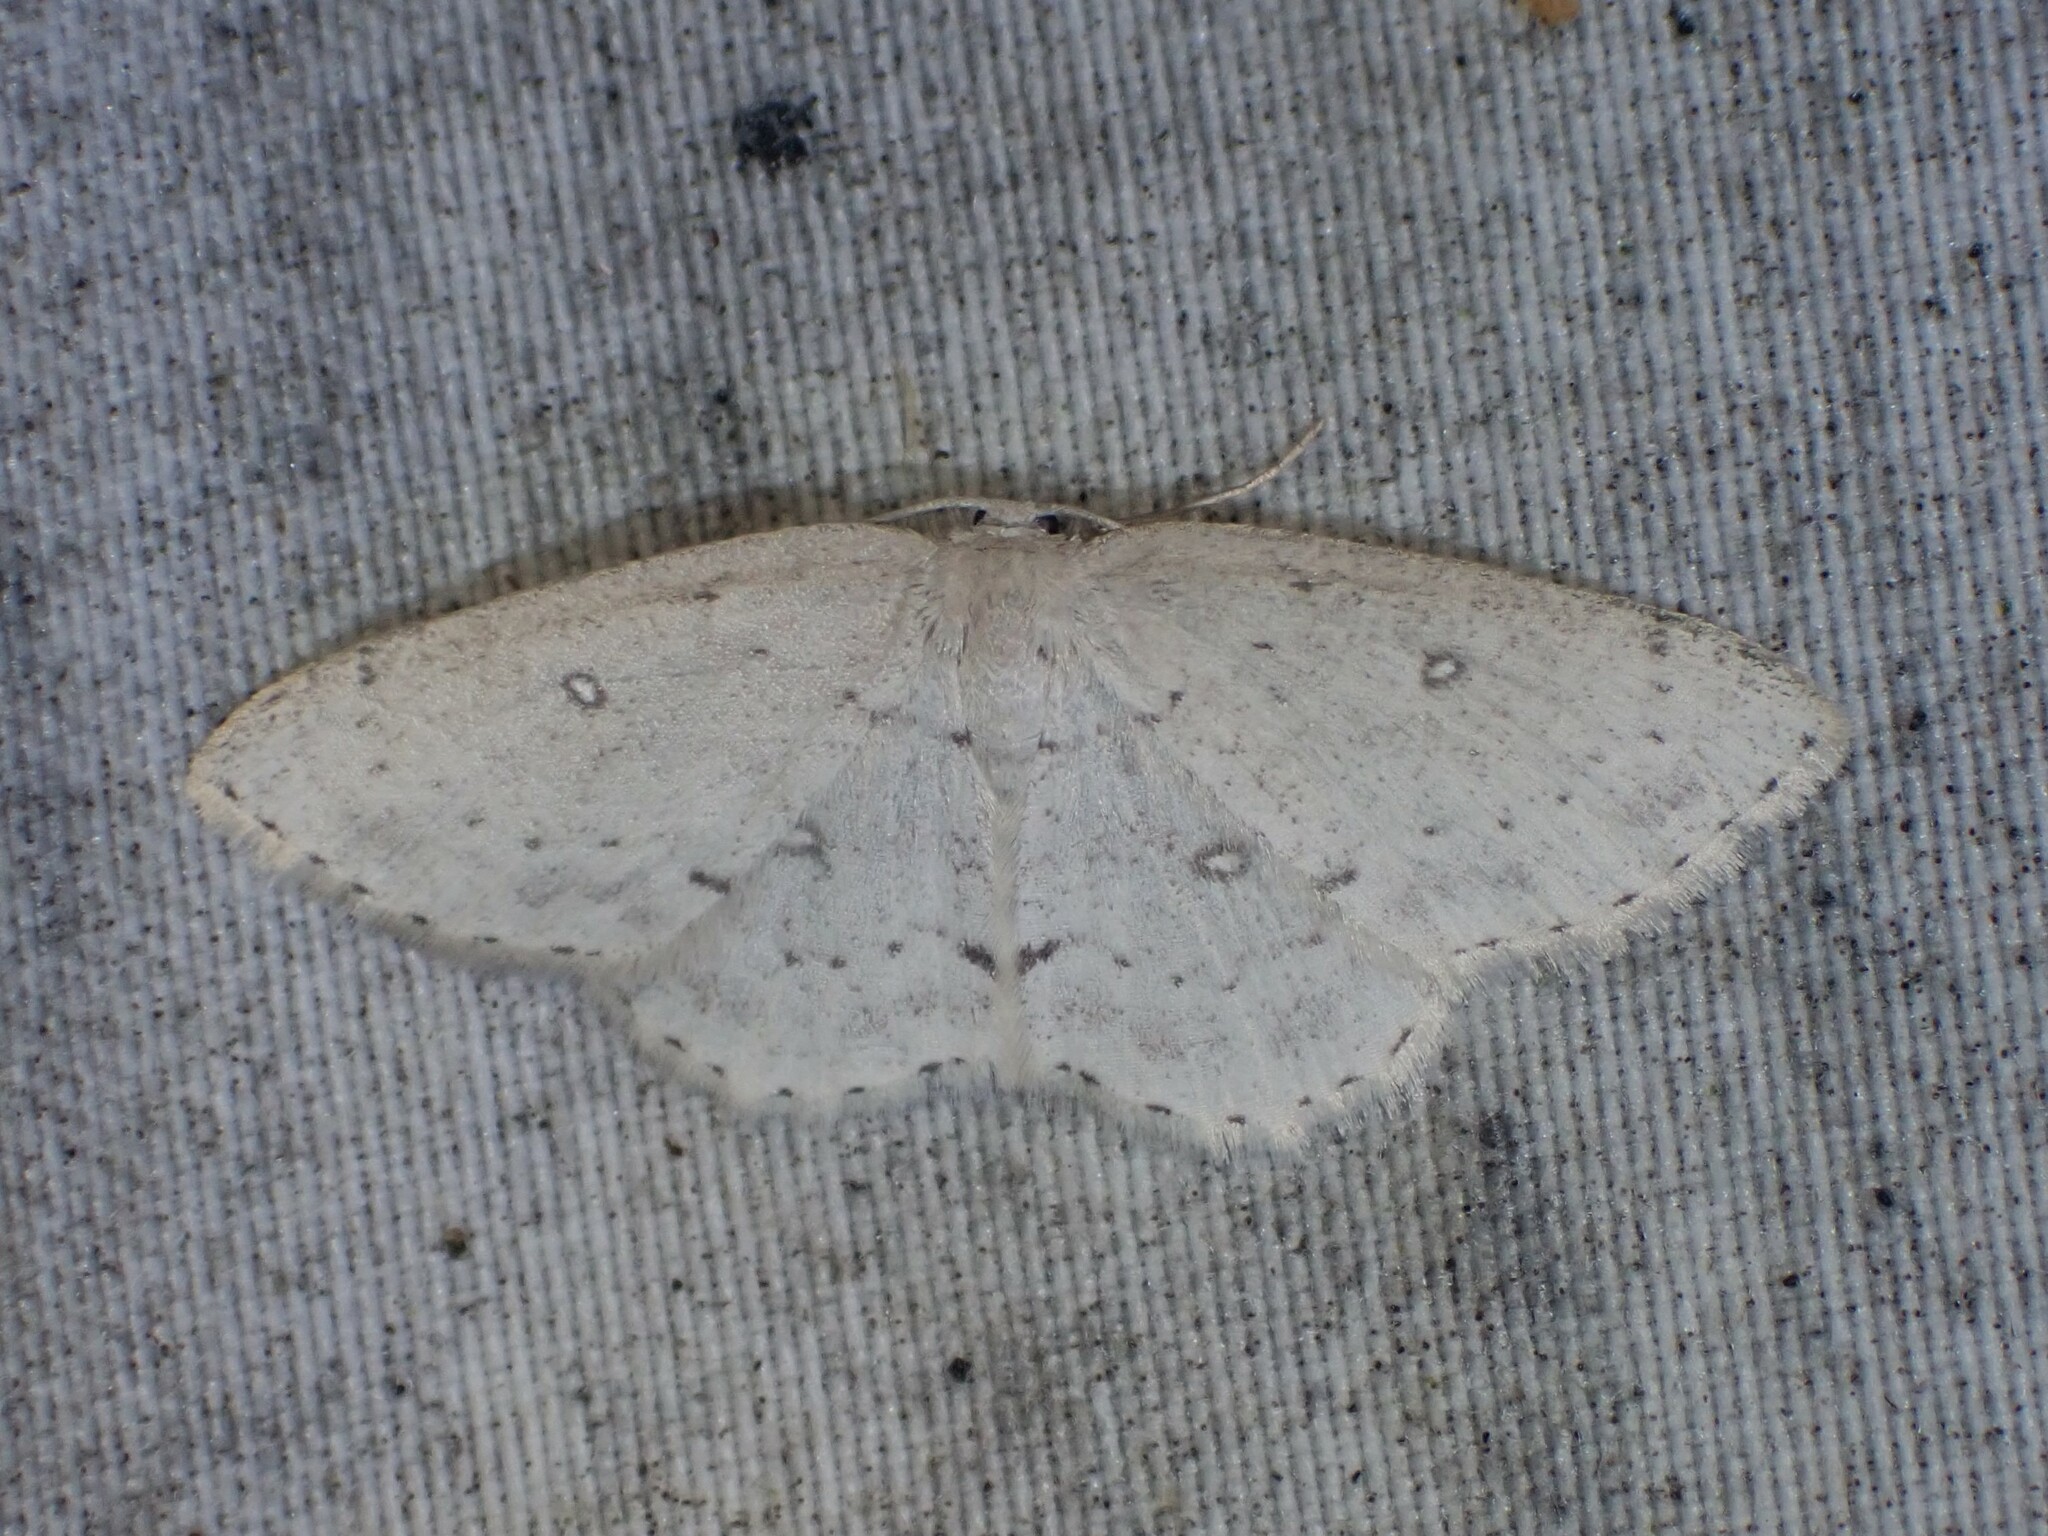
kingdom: Animalia
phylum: Arthropoda
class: Insecta
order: Lepidoptera
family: Geometridae
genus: Cyclophora
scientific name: Cyclophora pendulinaria
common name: Sweet fern geometer
